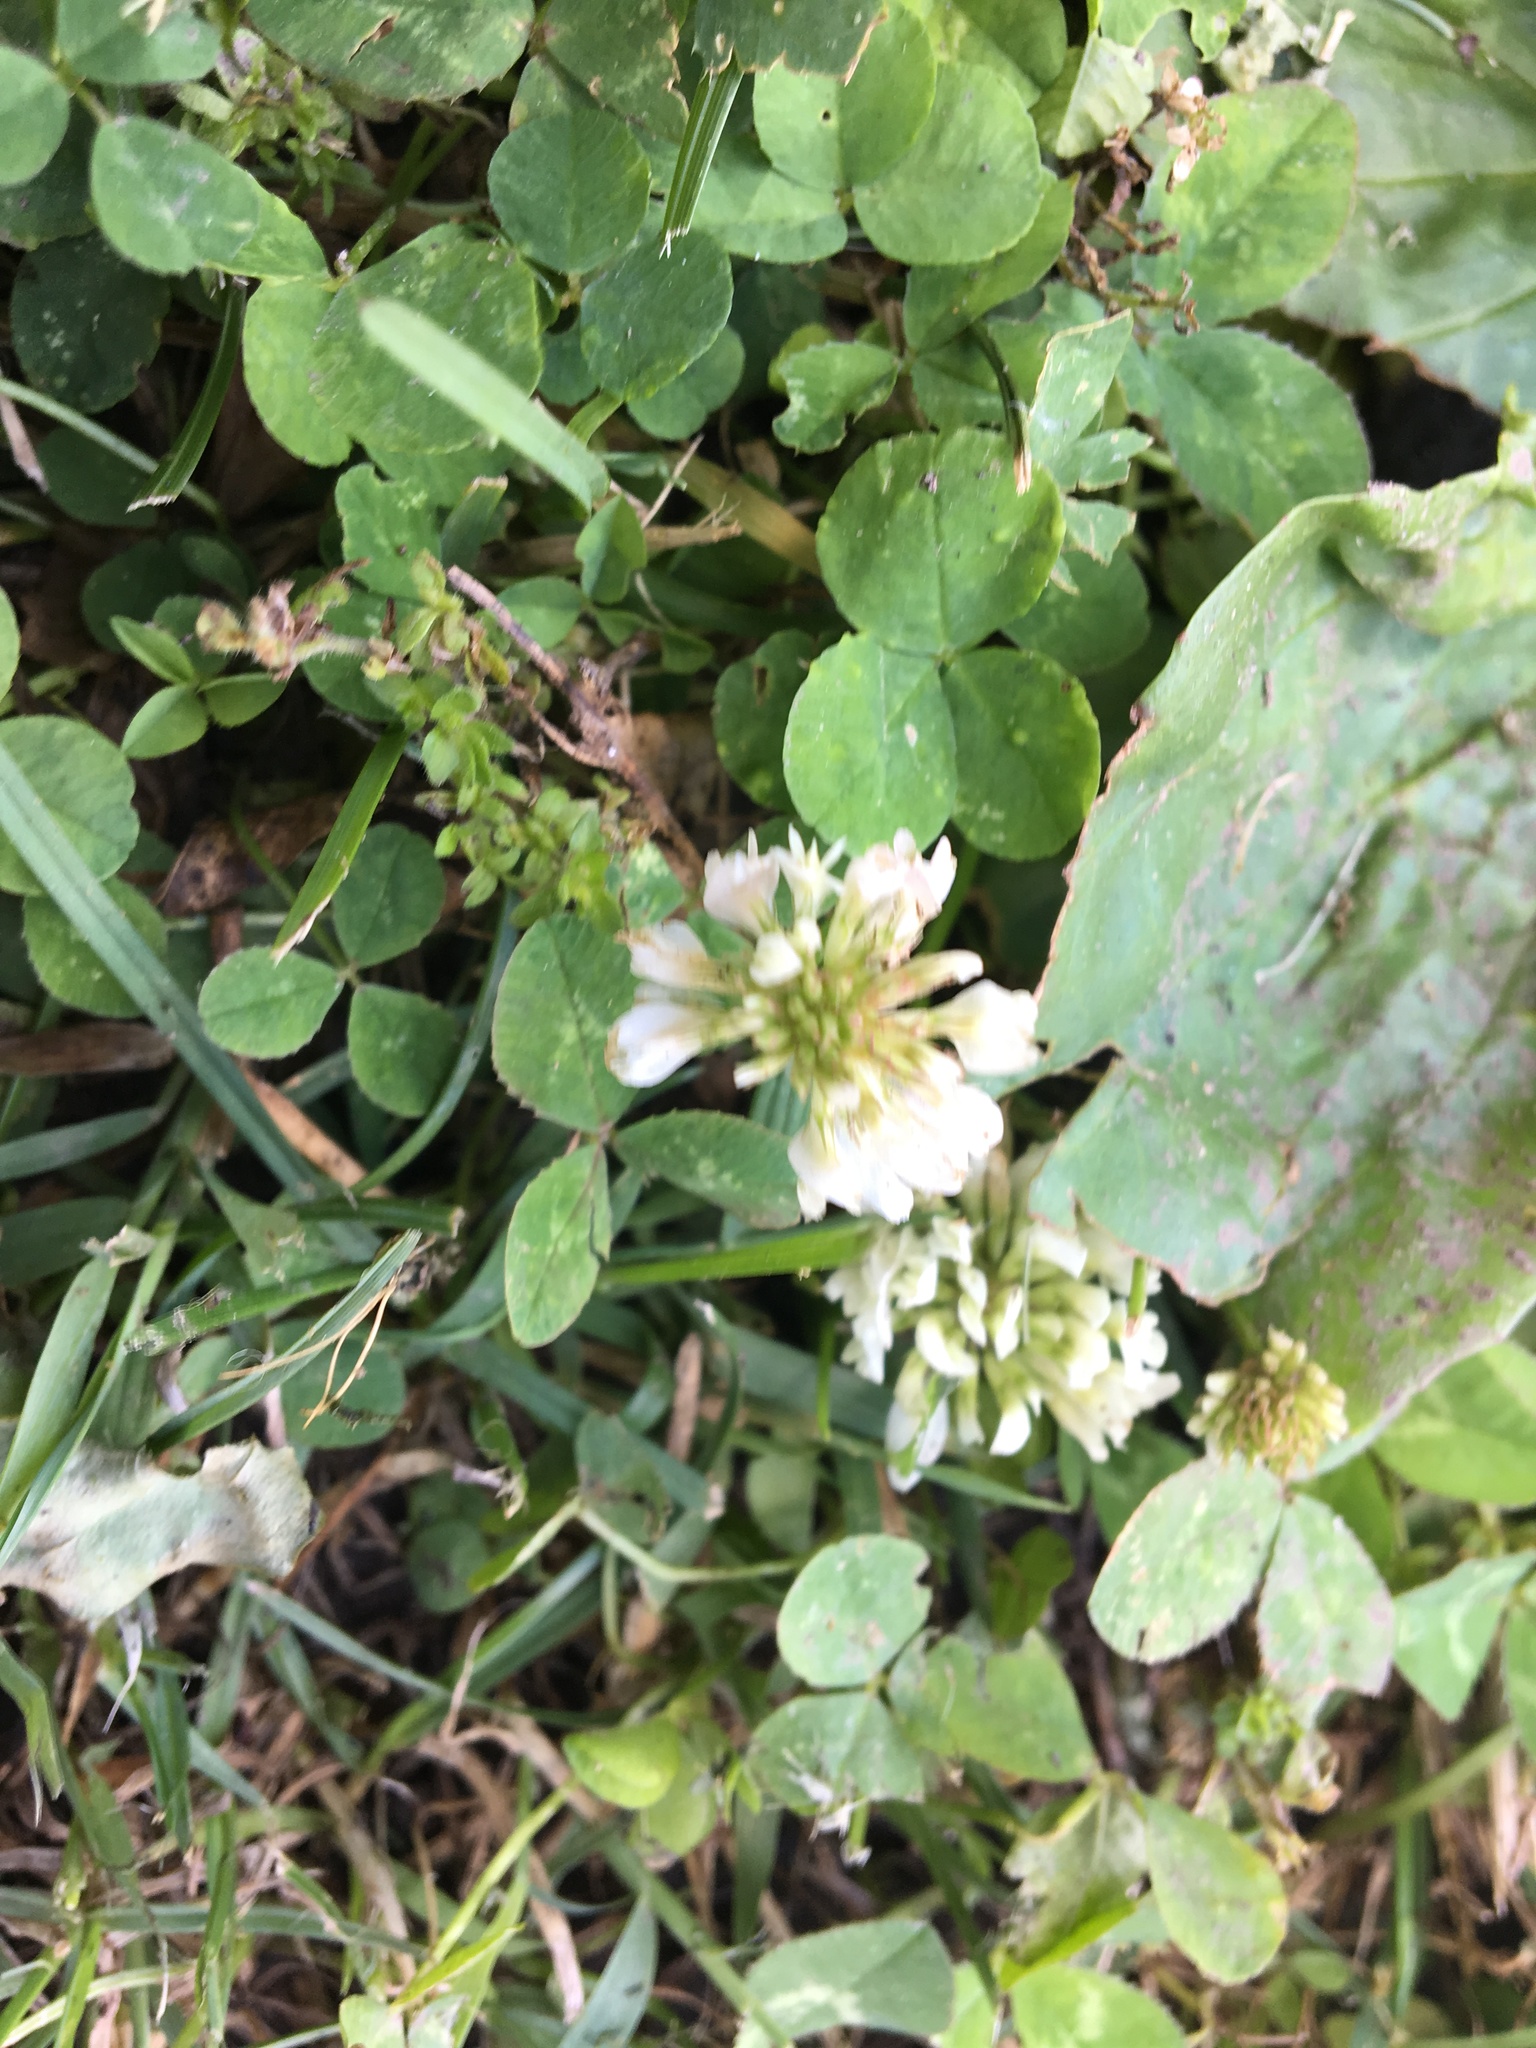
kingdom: Plantae
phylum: Tracheophyta
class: Magnoliopsida
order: Fabales
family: Fabaceae
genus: Trifolium
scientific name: Trifolium repens
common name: White clover
